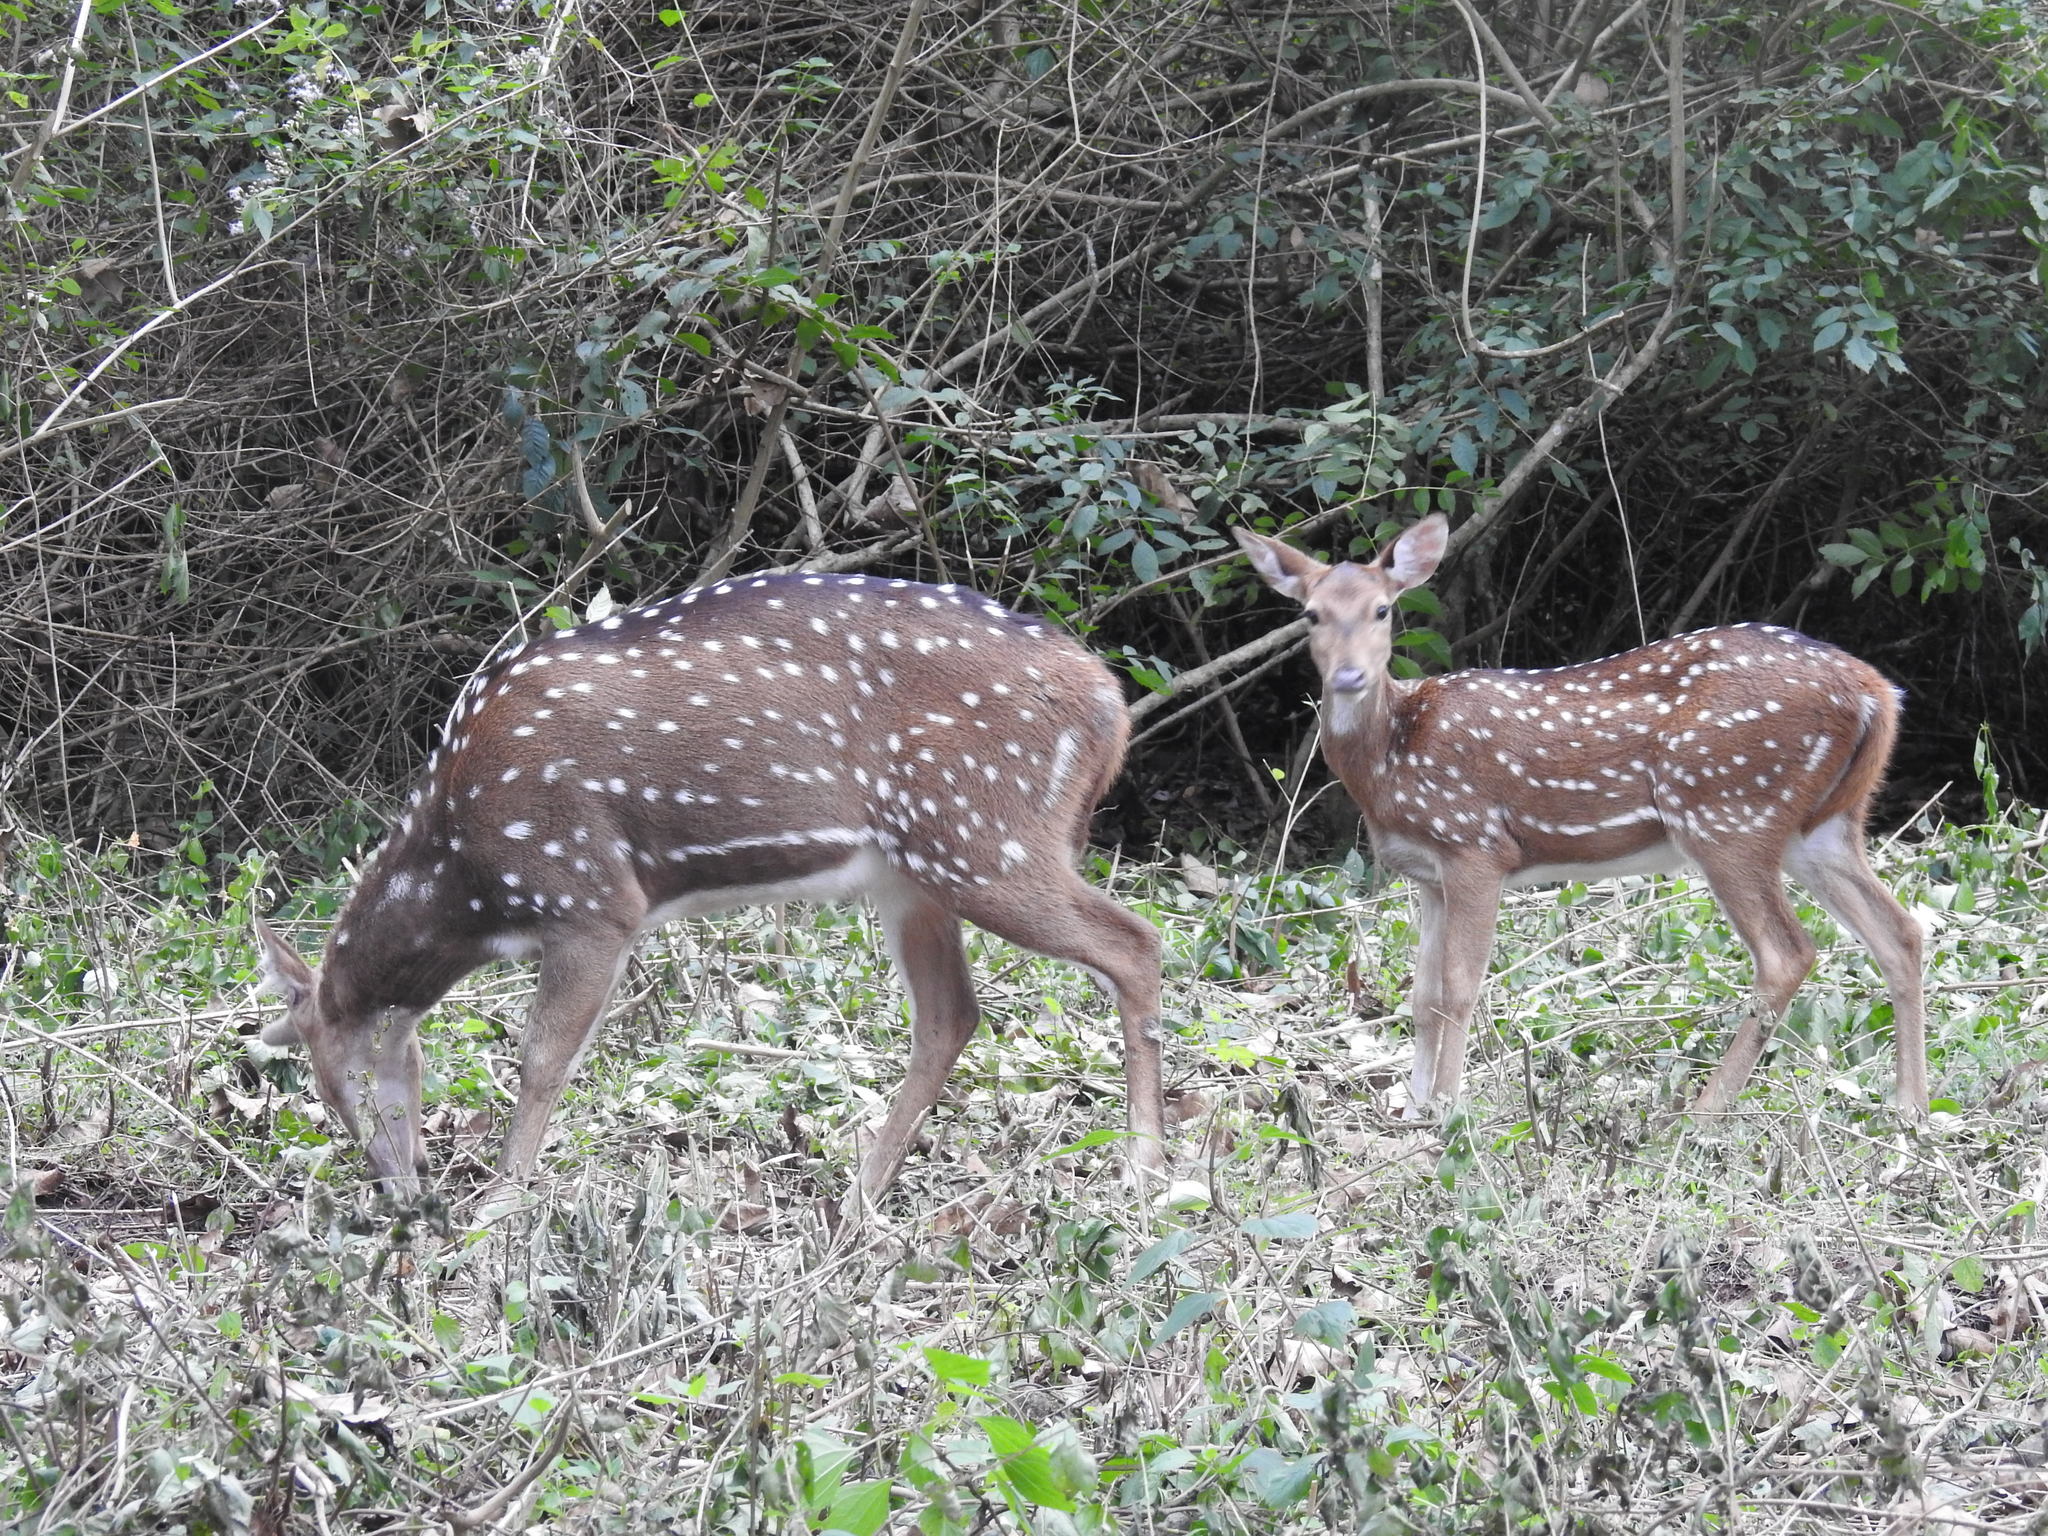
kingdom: Animalia
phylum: Chordata
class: Mammalia
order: Artiodactyla
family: Cervidae
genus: Axis
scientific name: Axis axis
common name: Chital
